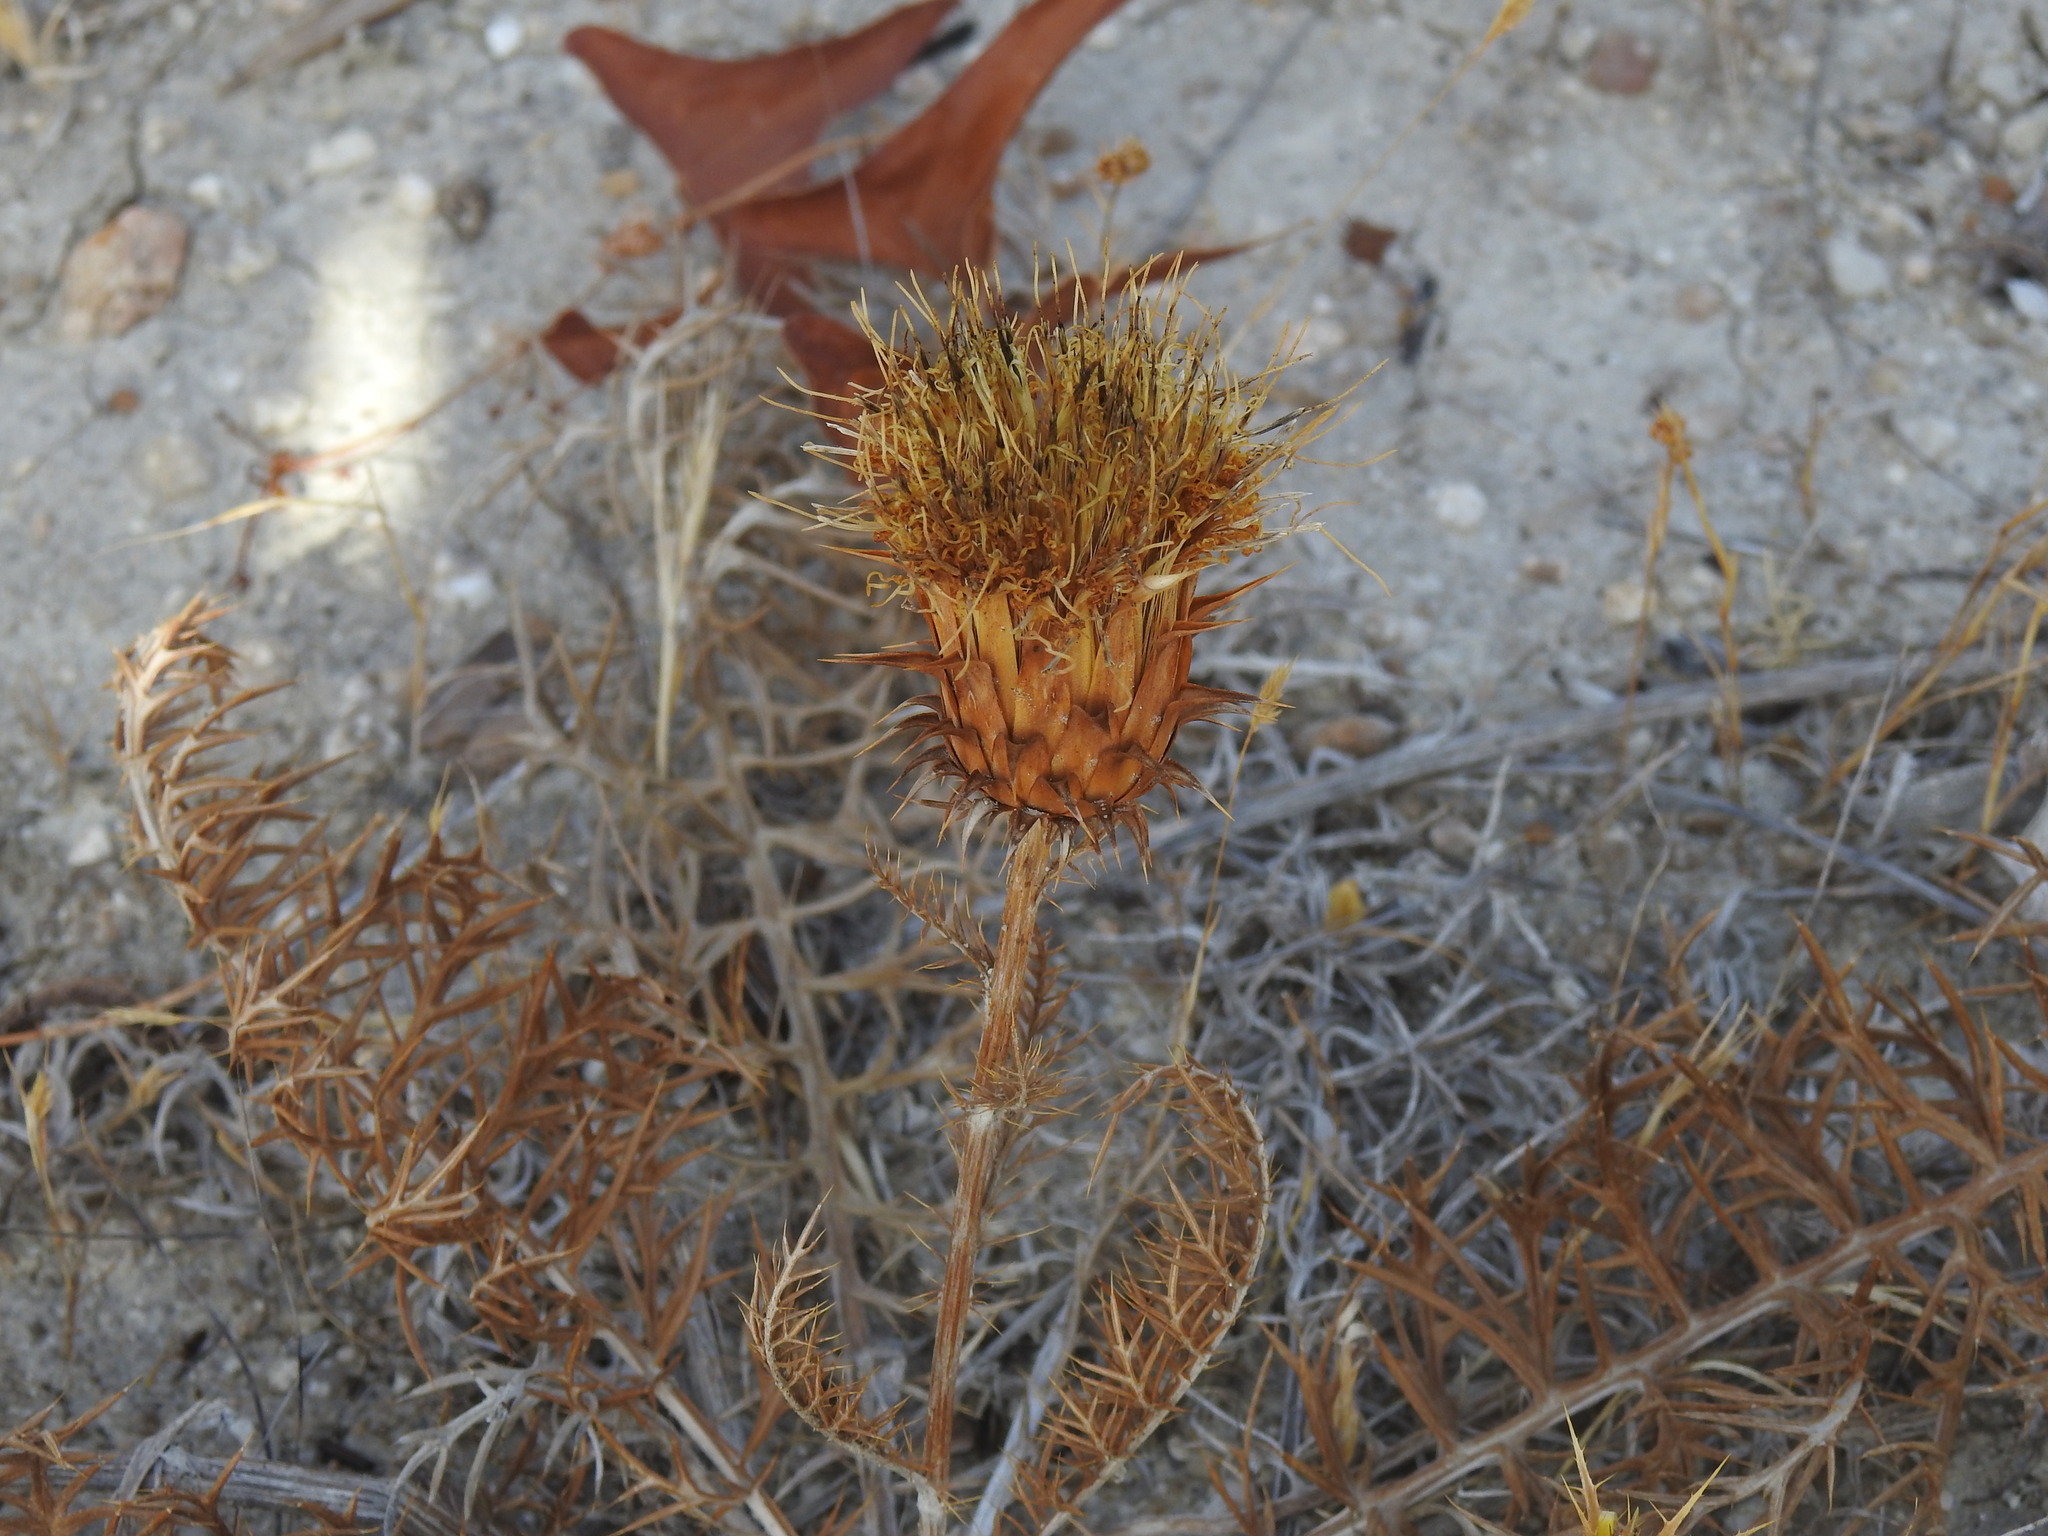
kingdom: Plantae
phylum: Tracheophyta
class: Magnoliopsida
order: Asterales
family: Asteraceae
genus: Cynara
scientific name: Cynara humilis
